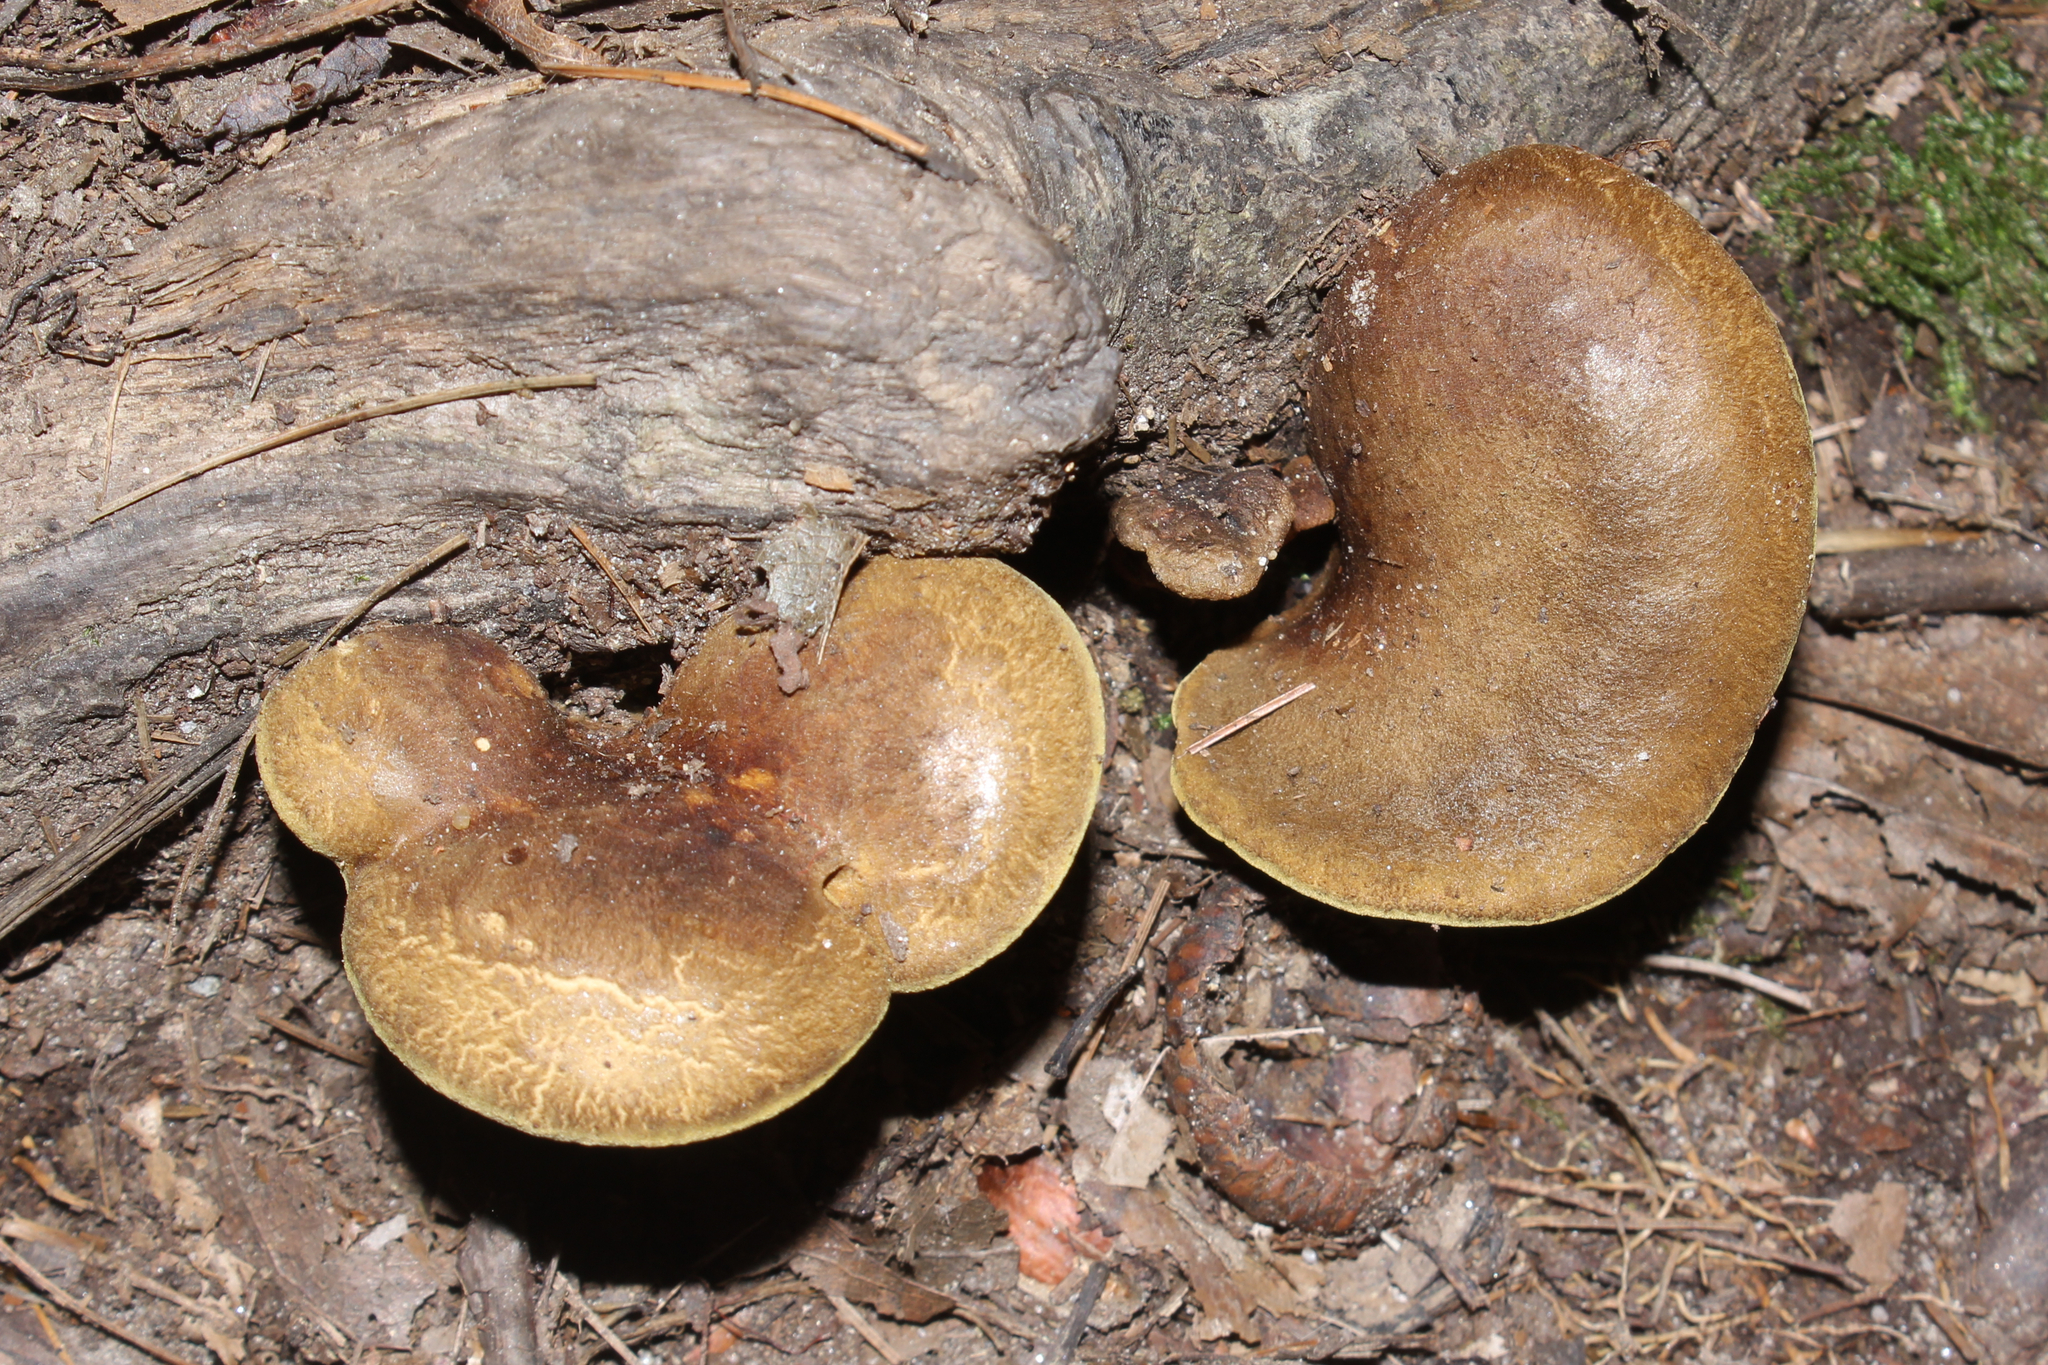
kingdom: Fungi
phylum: Basidiomycota
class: Agaricomycetes
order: Boletales
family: Boletinellaceae
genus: Boletinellus
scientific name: Boletinellus merulioides
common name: Ash tree bolete
